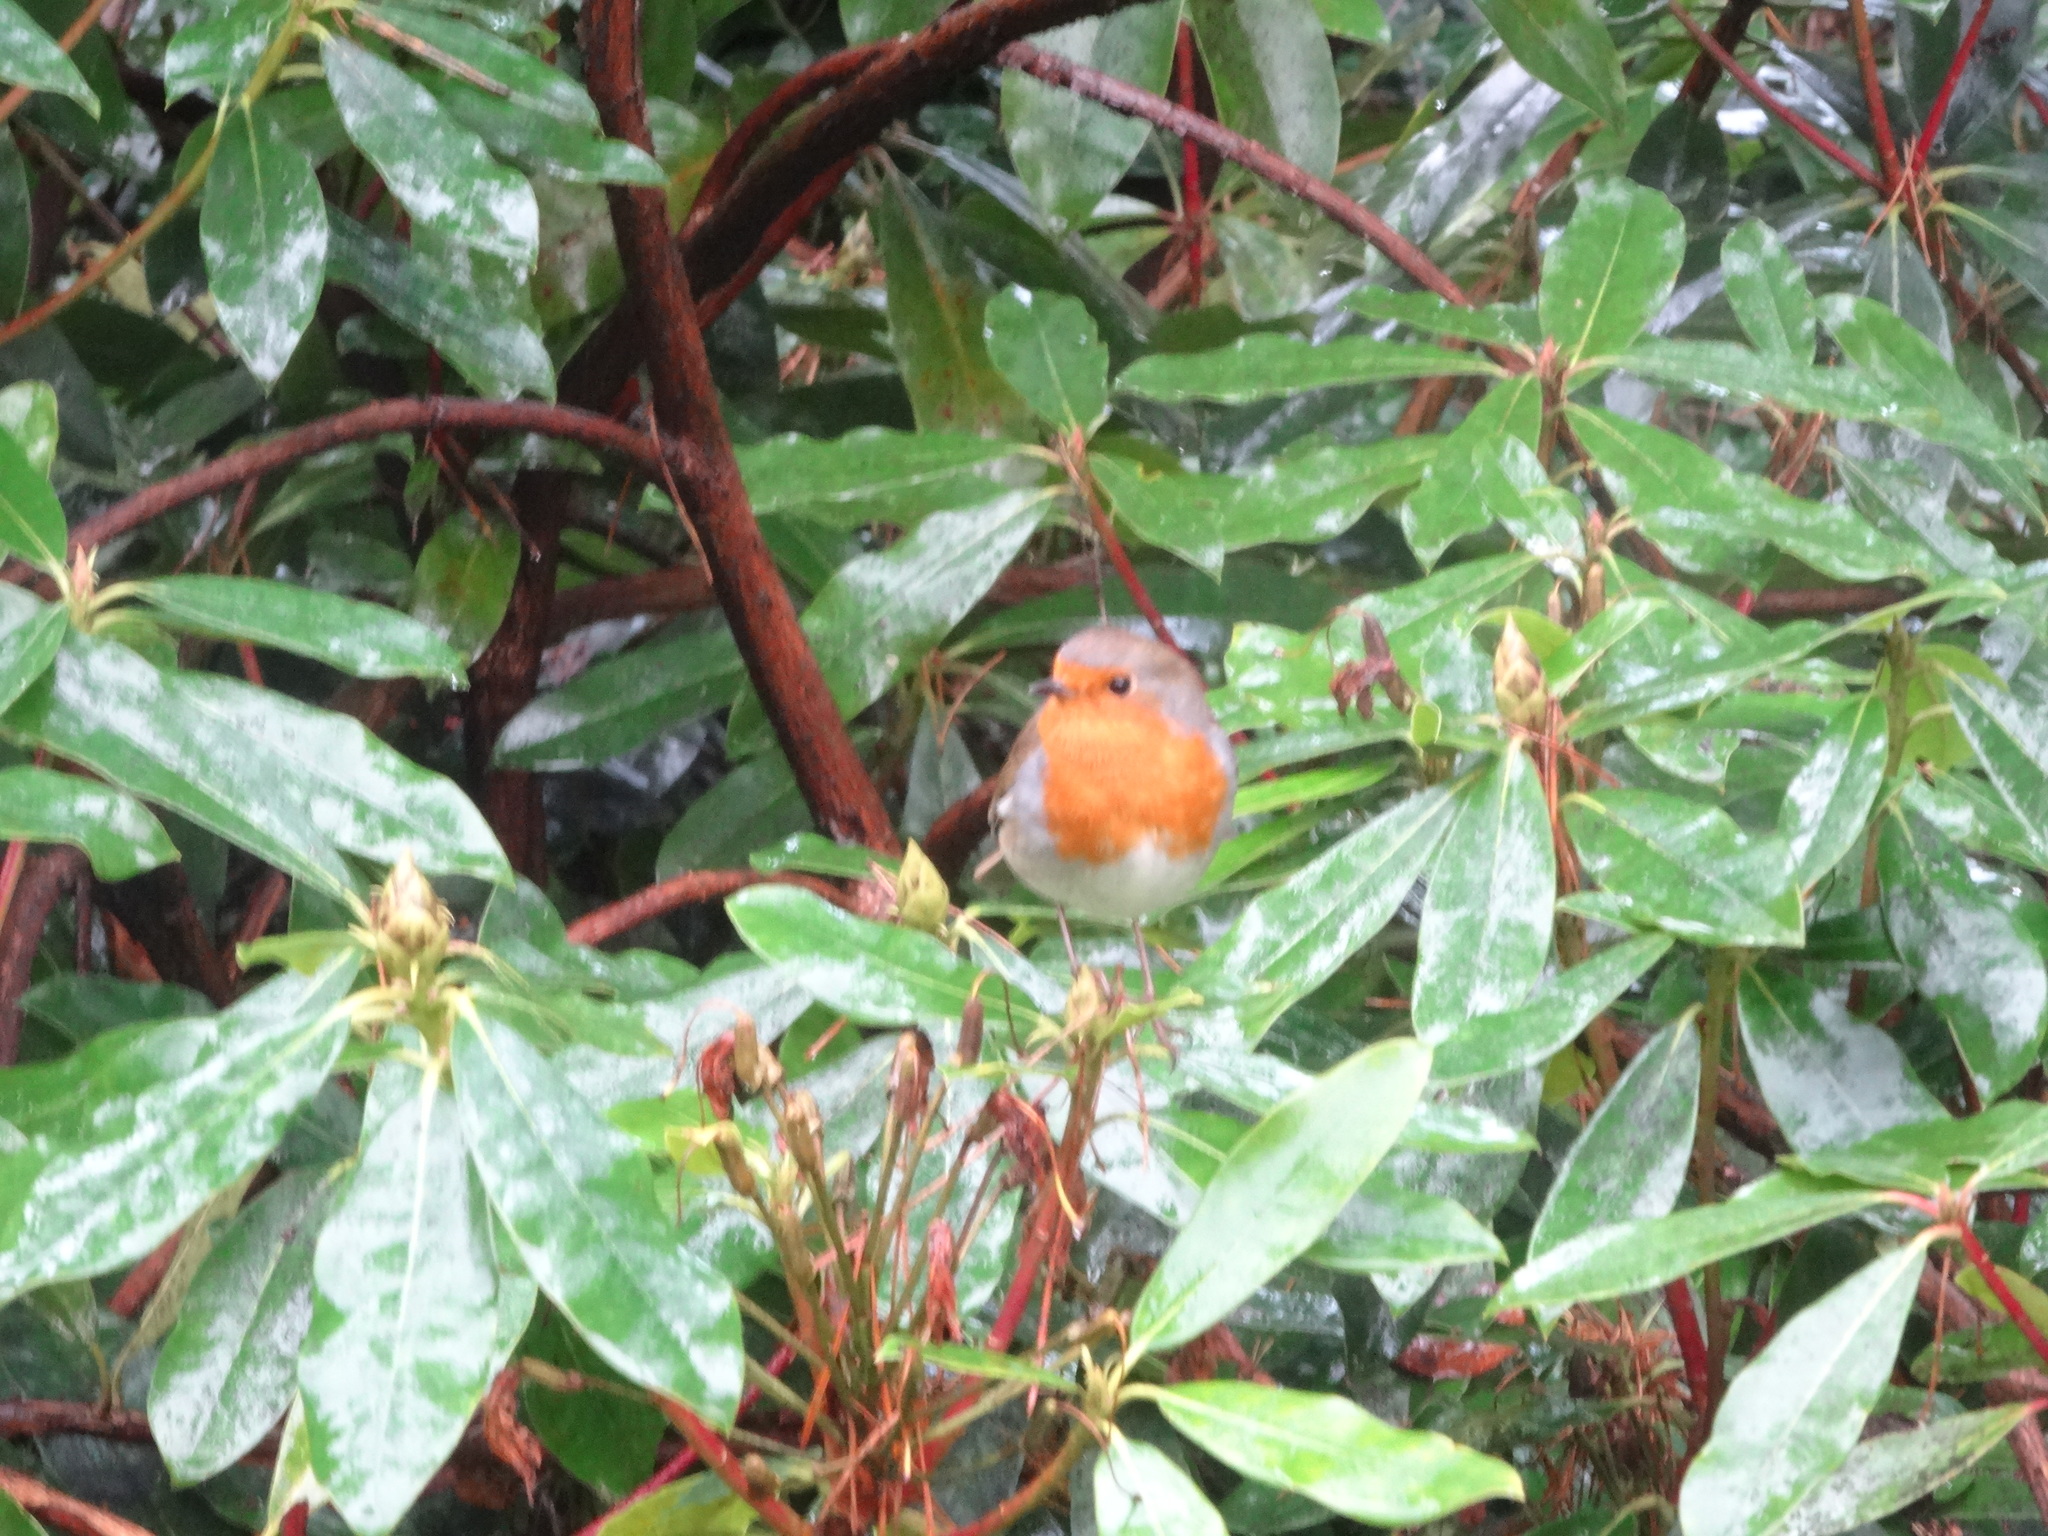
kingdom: Animalia
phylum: Chordata
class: Aves
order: Passeriformes
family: Muscicapidae
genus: Erithacus
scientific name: Erithacus rubecula
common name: European robin
